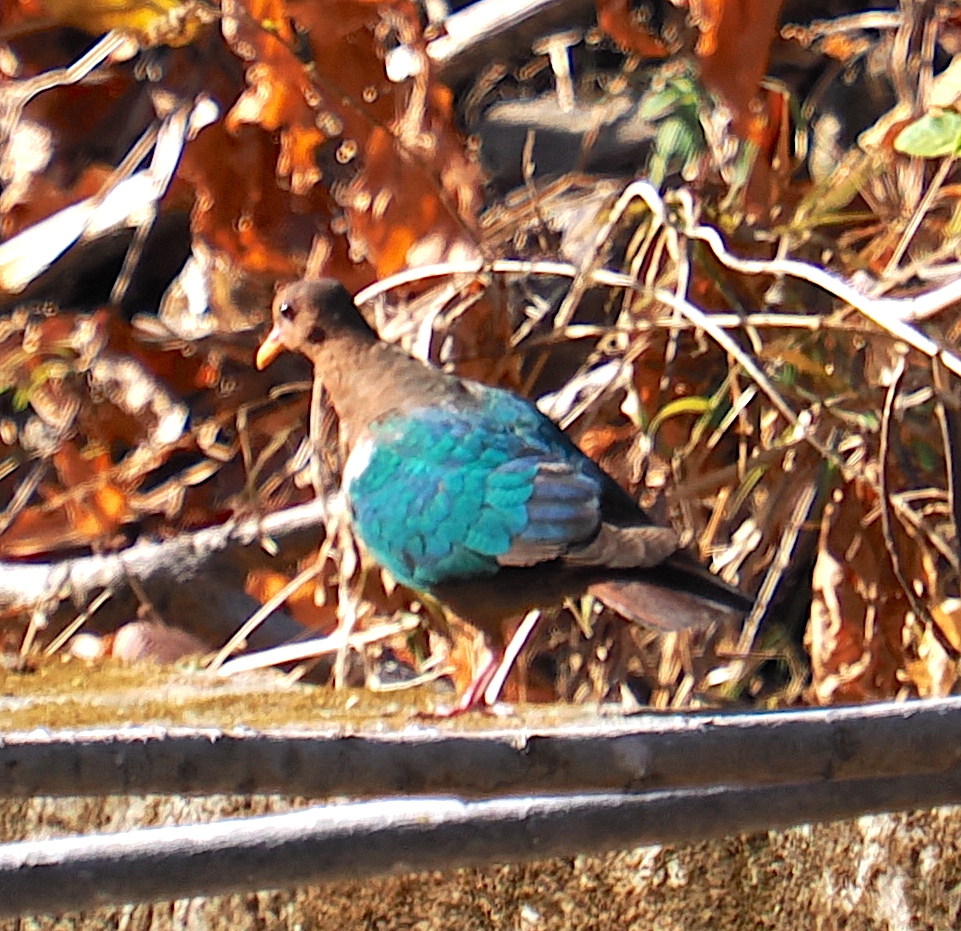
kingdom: Animalia
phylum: Chordata
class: Aves
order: Columbiformes
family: Columbidae
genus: Chalcophaps
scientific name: Chalcophaps longirostris
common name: Pacific emerald dove
